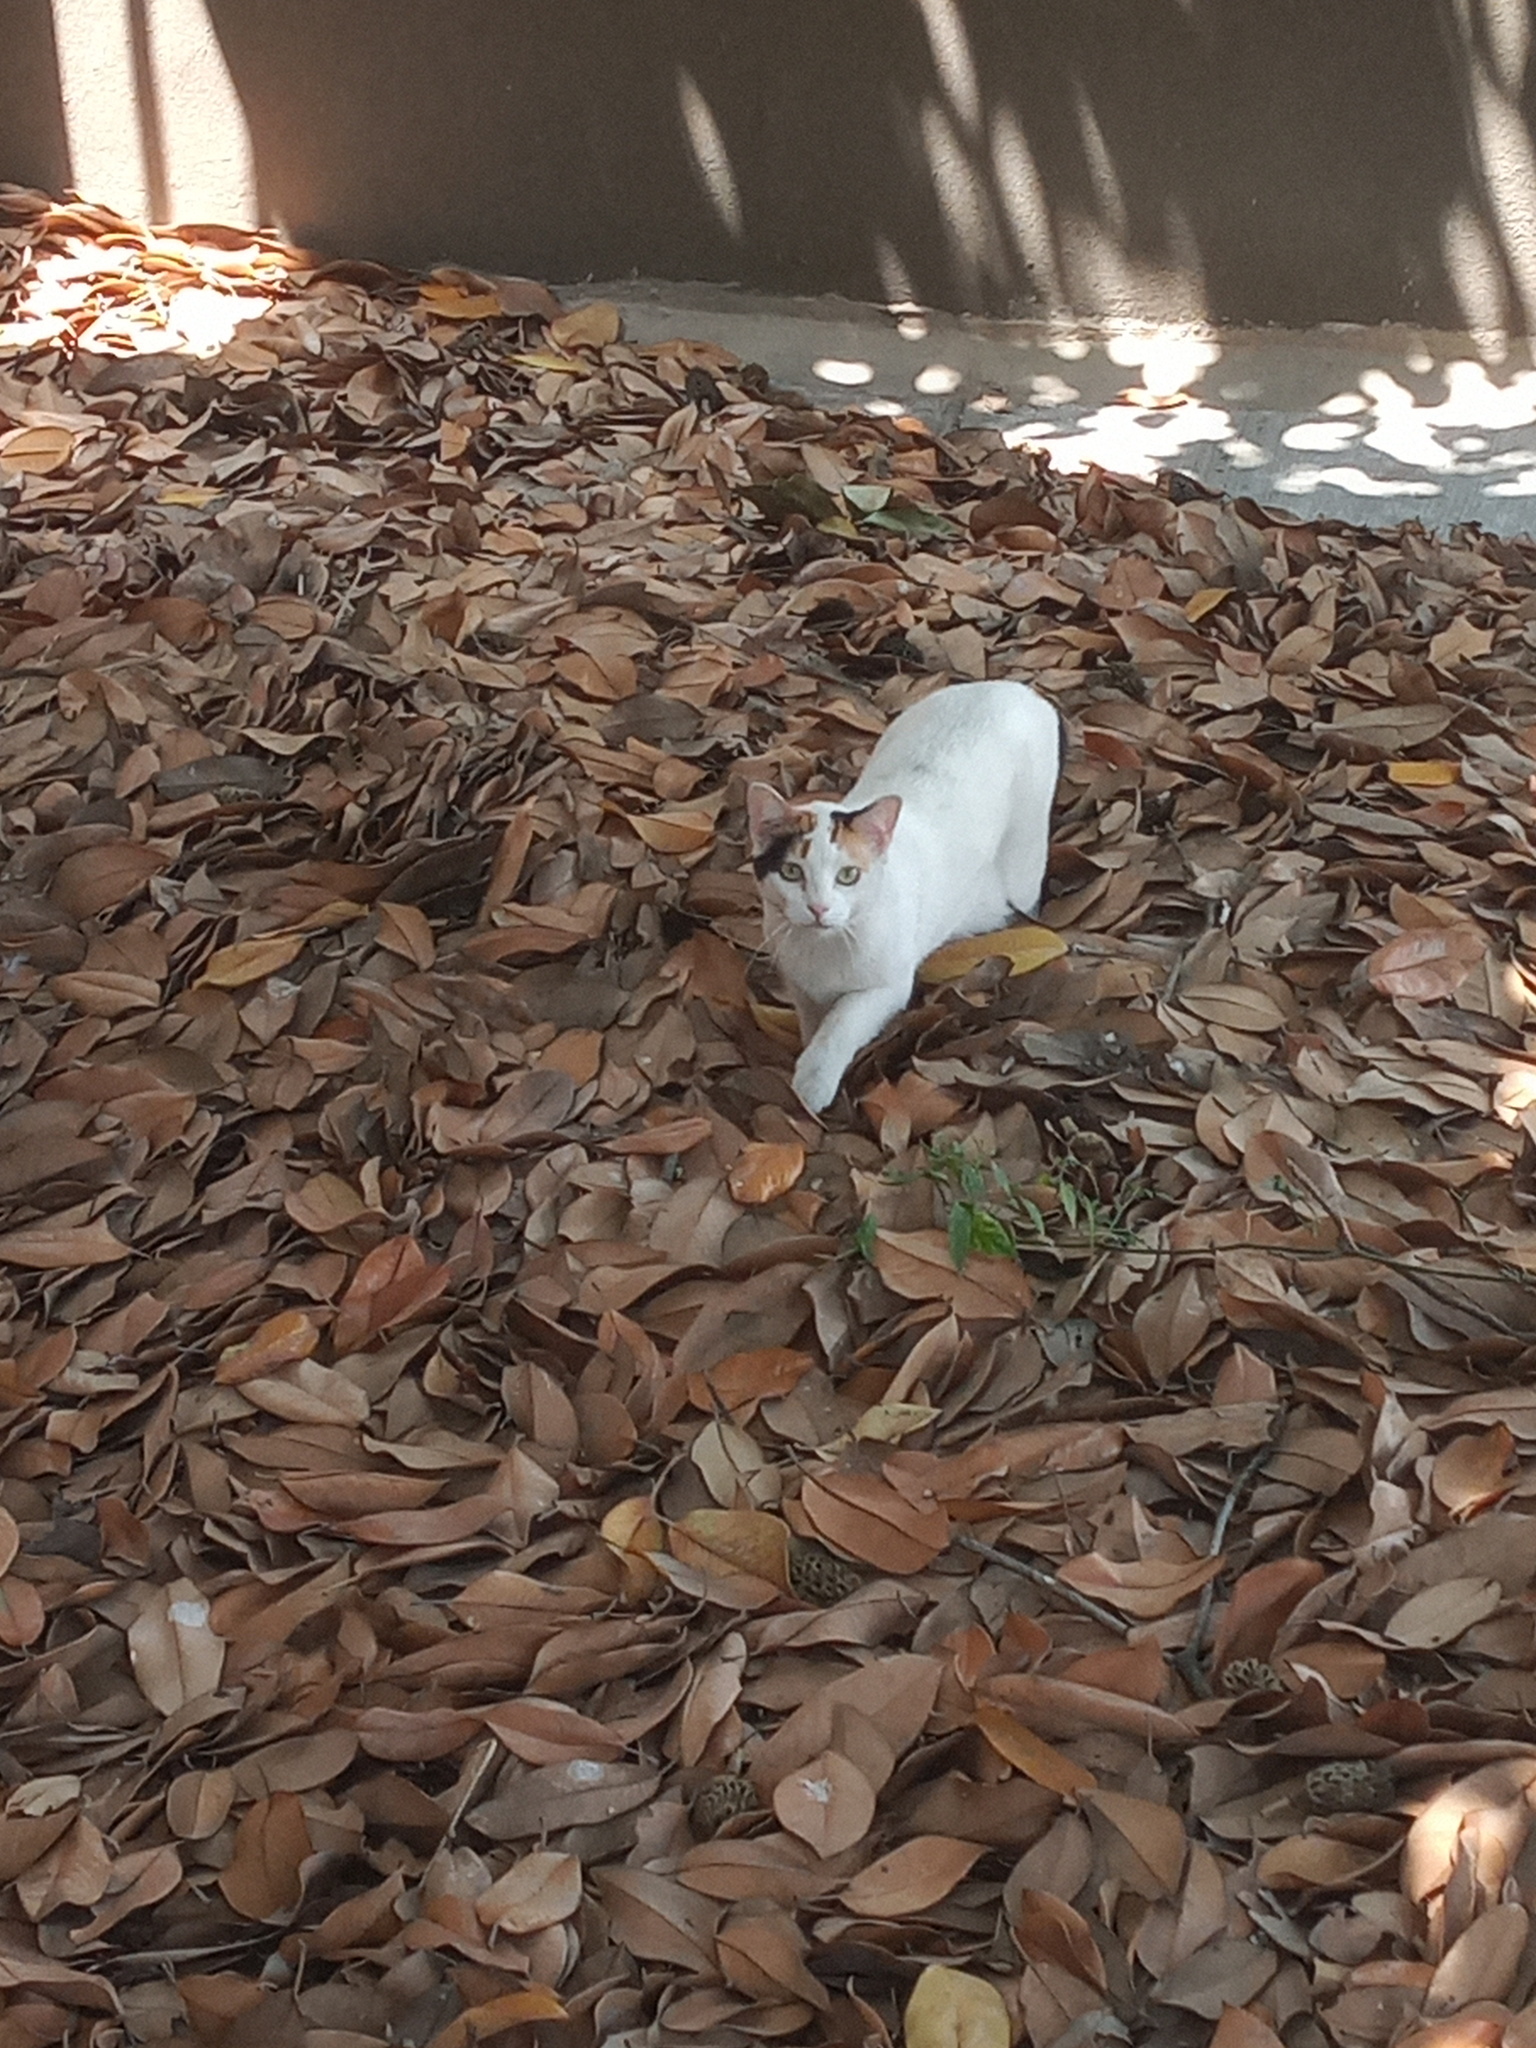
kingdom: Animalia
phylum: Chordata
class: Mammalia
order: Carnivora
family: Felidae
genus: Felis
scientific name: Felis catus
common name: Domestic cat
